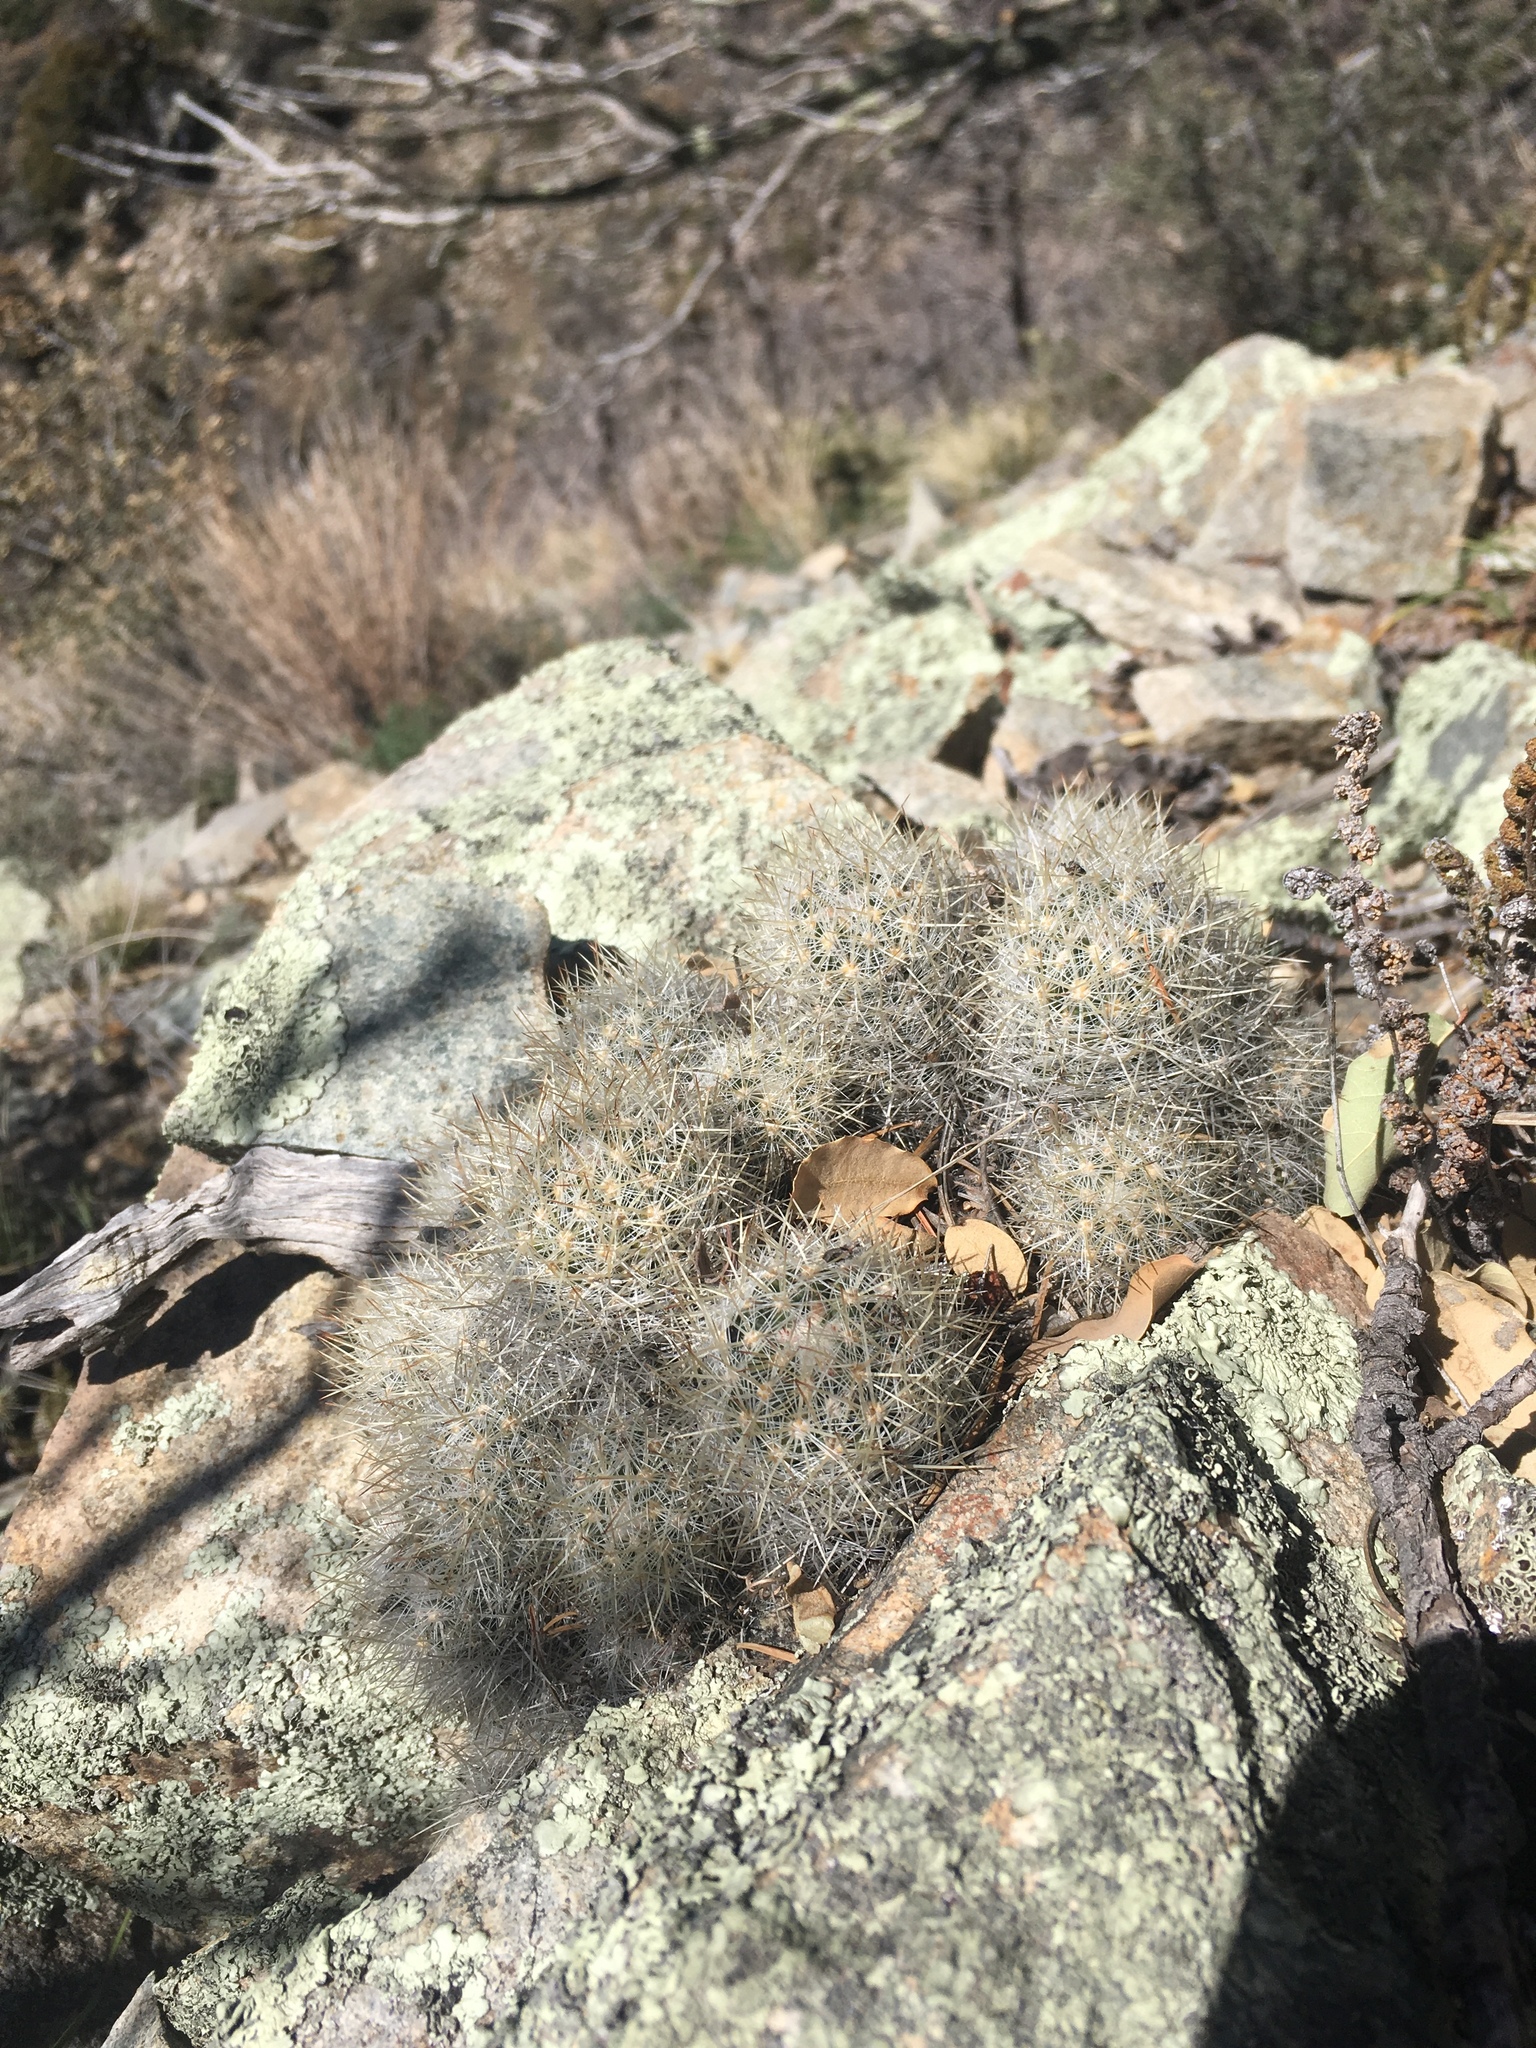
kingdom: Plantae
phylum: Tracheophyta
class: Magnoliopsida
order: Caryophyllales
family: Cactaceae
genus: Pelecyphora
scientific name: Pelecyphora sneedii
